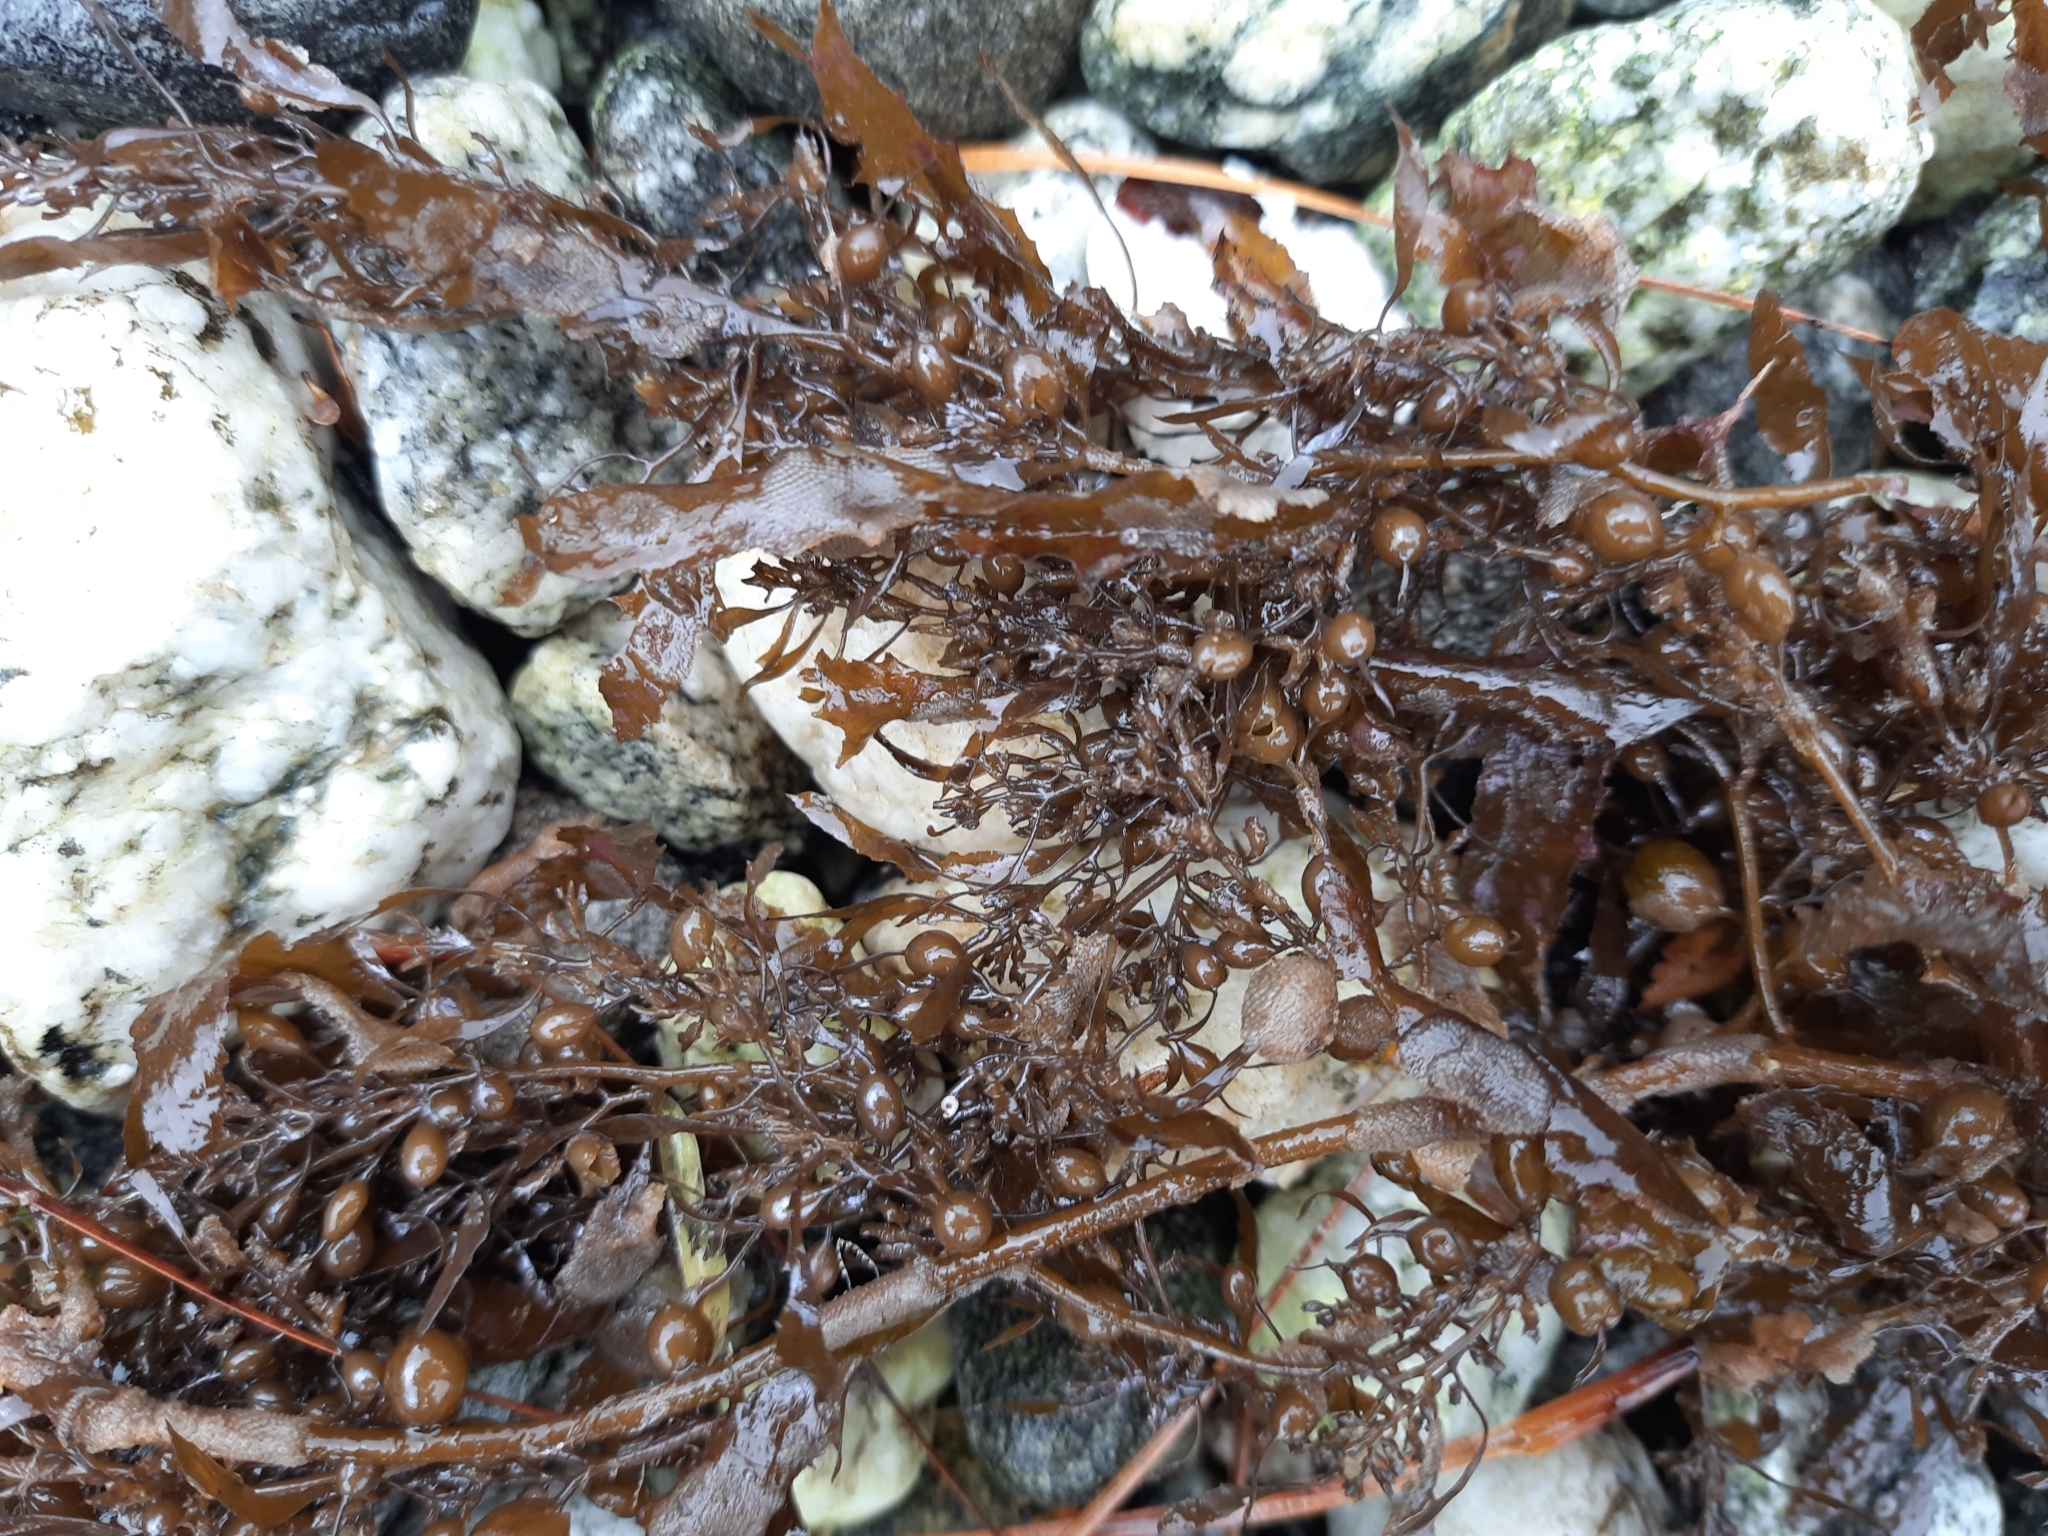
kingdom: Chromista
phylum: Ochrophyta
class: Phaeophyceae
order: Fucales
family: Sargassaceae
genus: Sargassum
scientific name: Sargassum sinclairii
